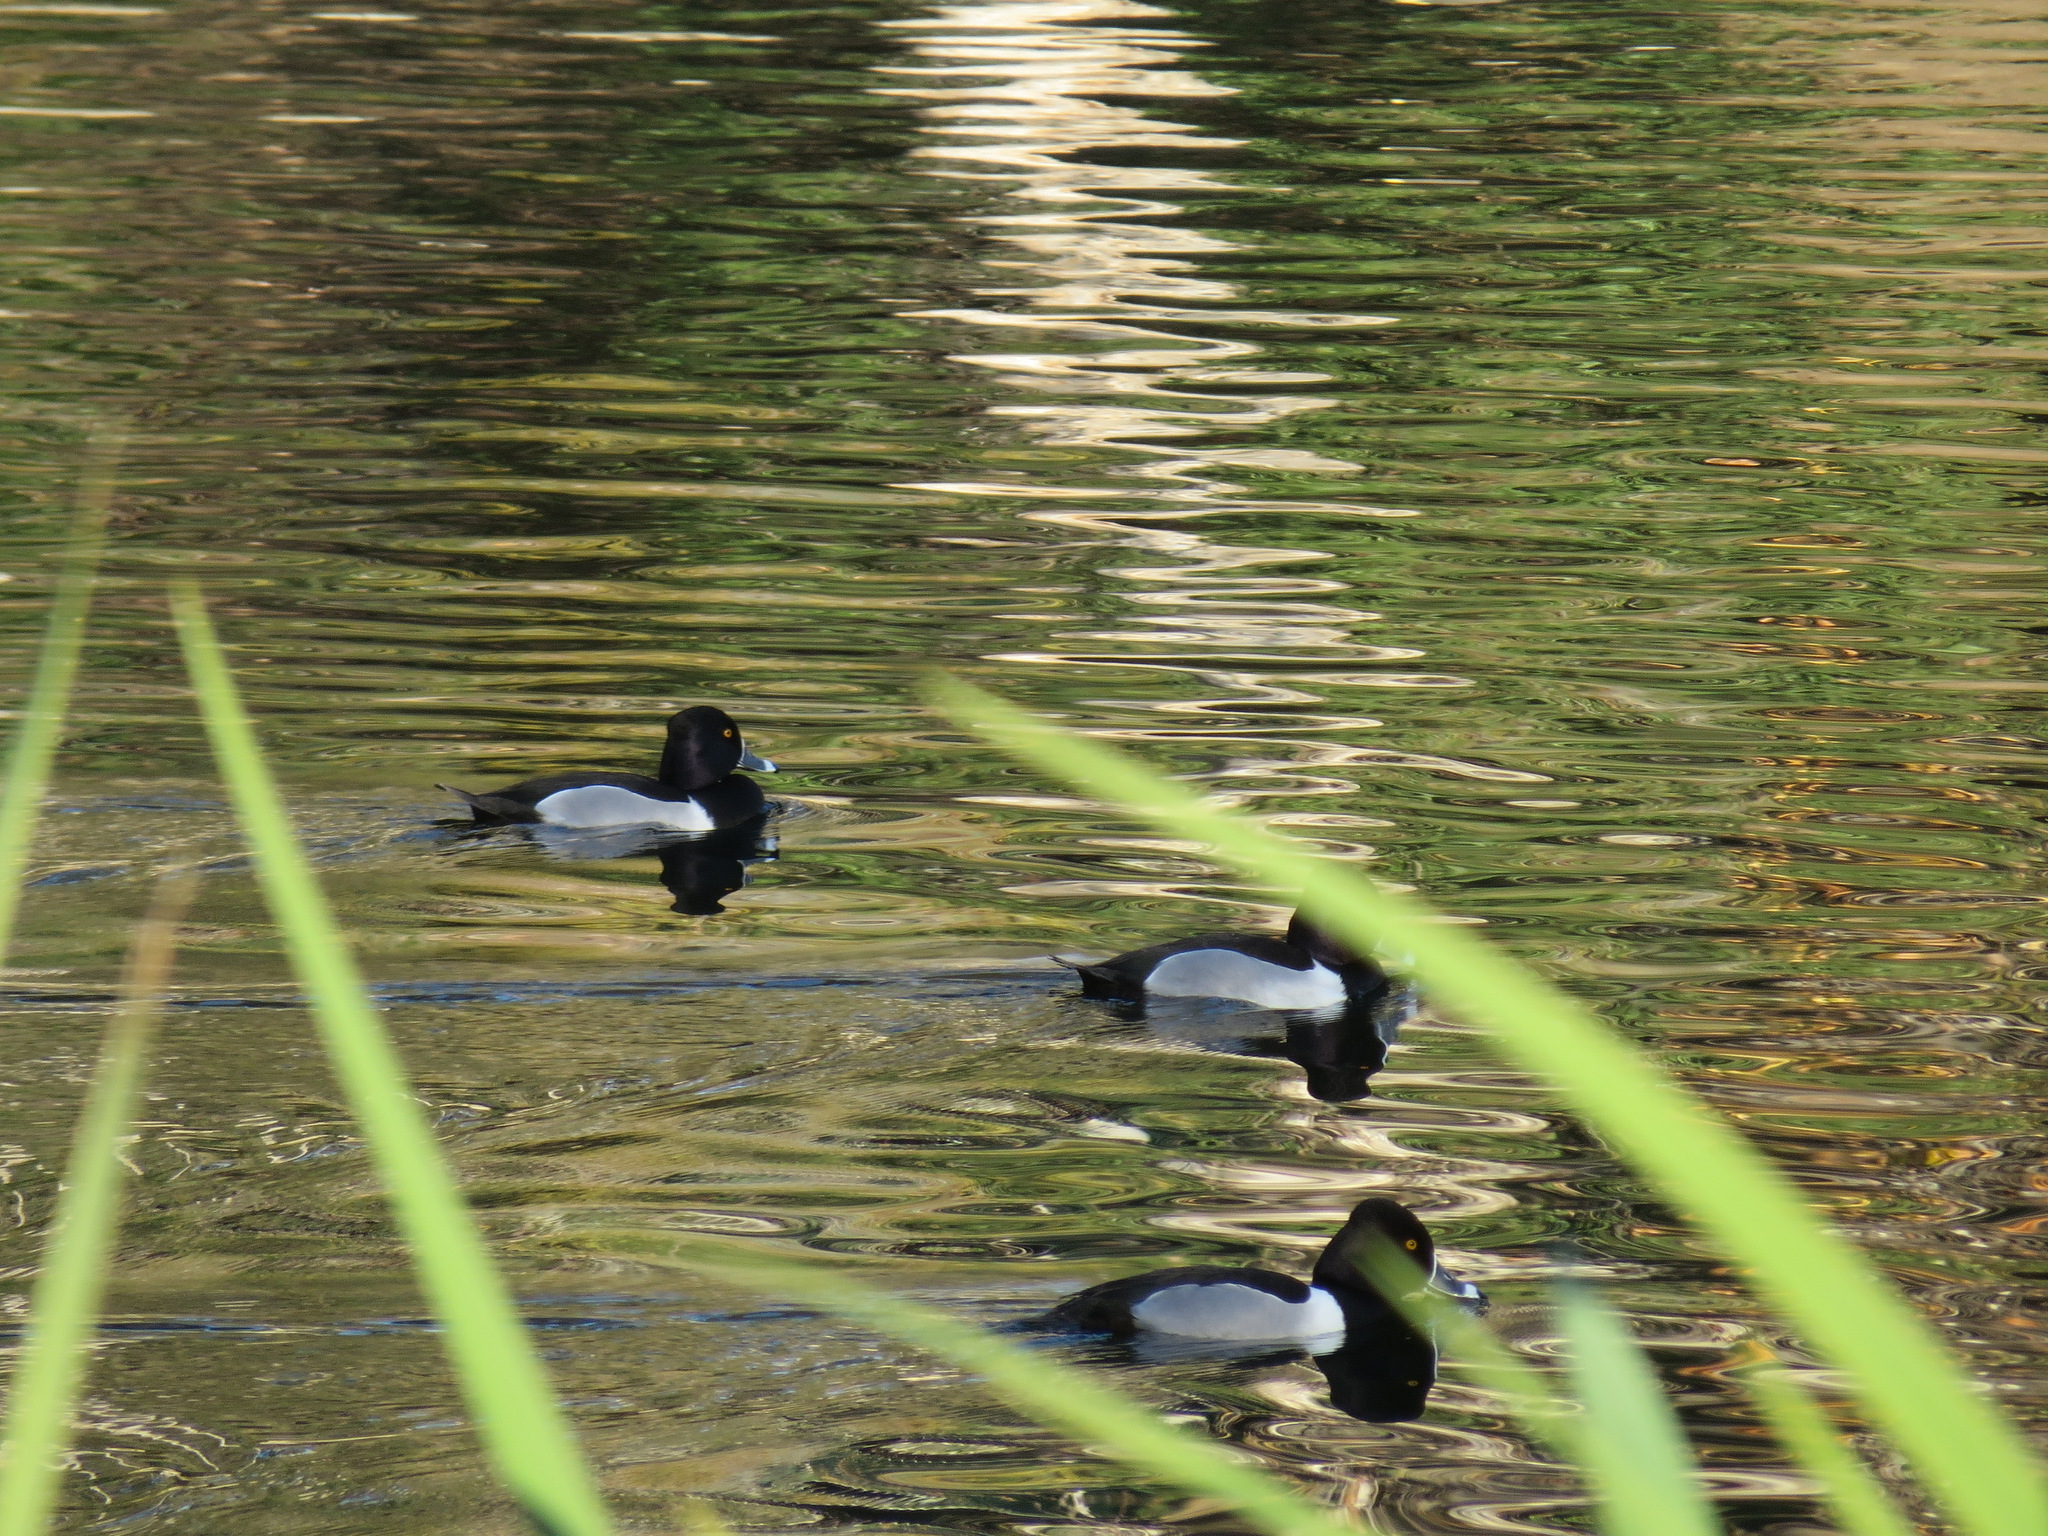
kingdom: Animalia
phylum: Chordata
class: Aves
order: Anseriformes
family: Anatidae
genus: Aythya
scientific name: Aythya collaris
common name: Ring-necked duck
